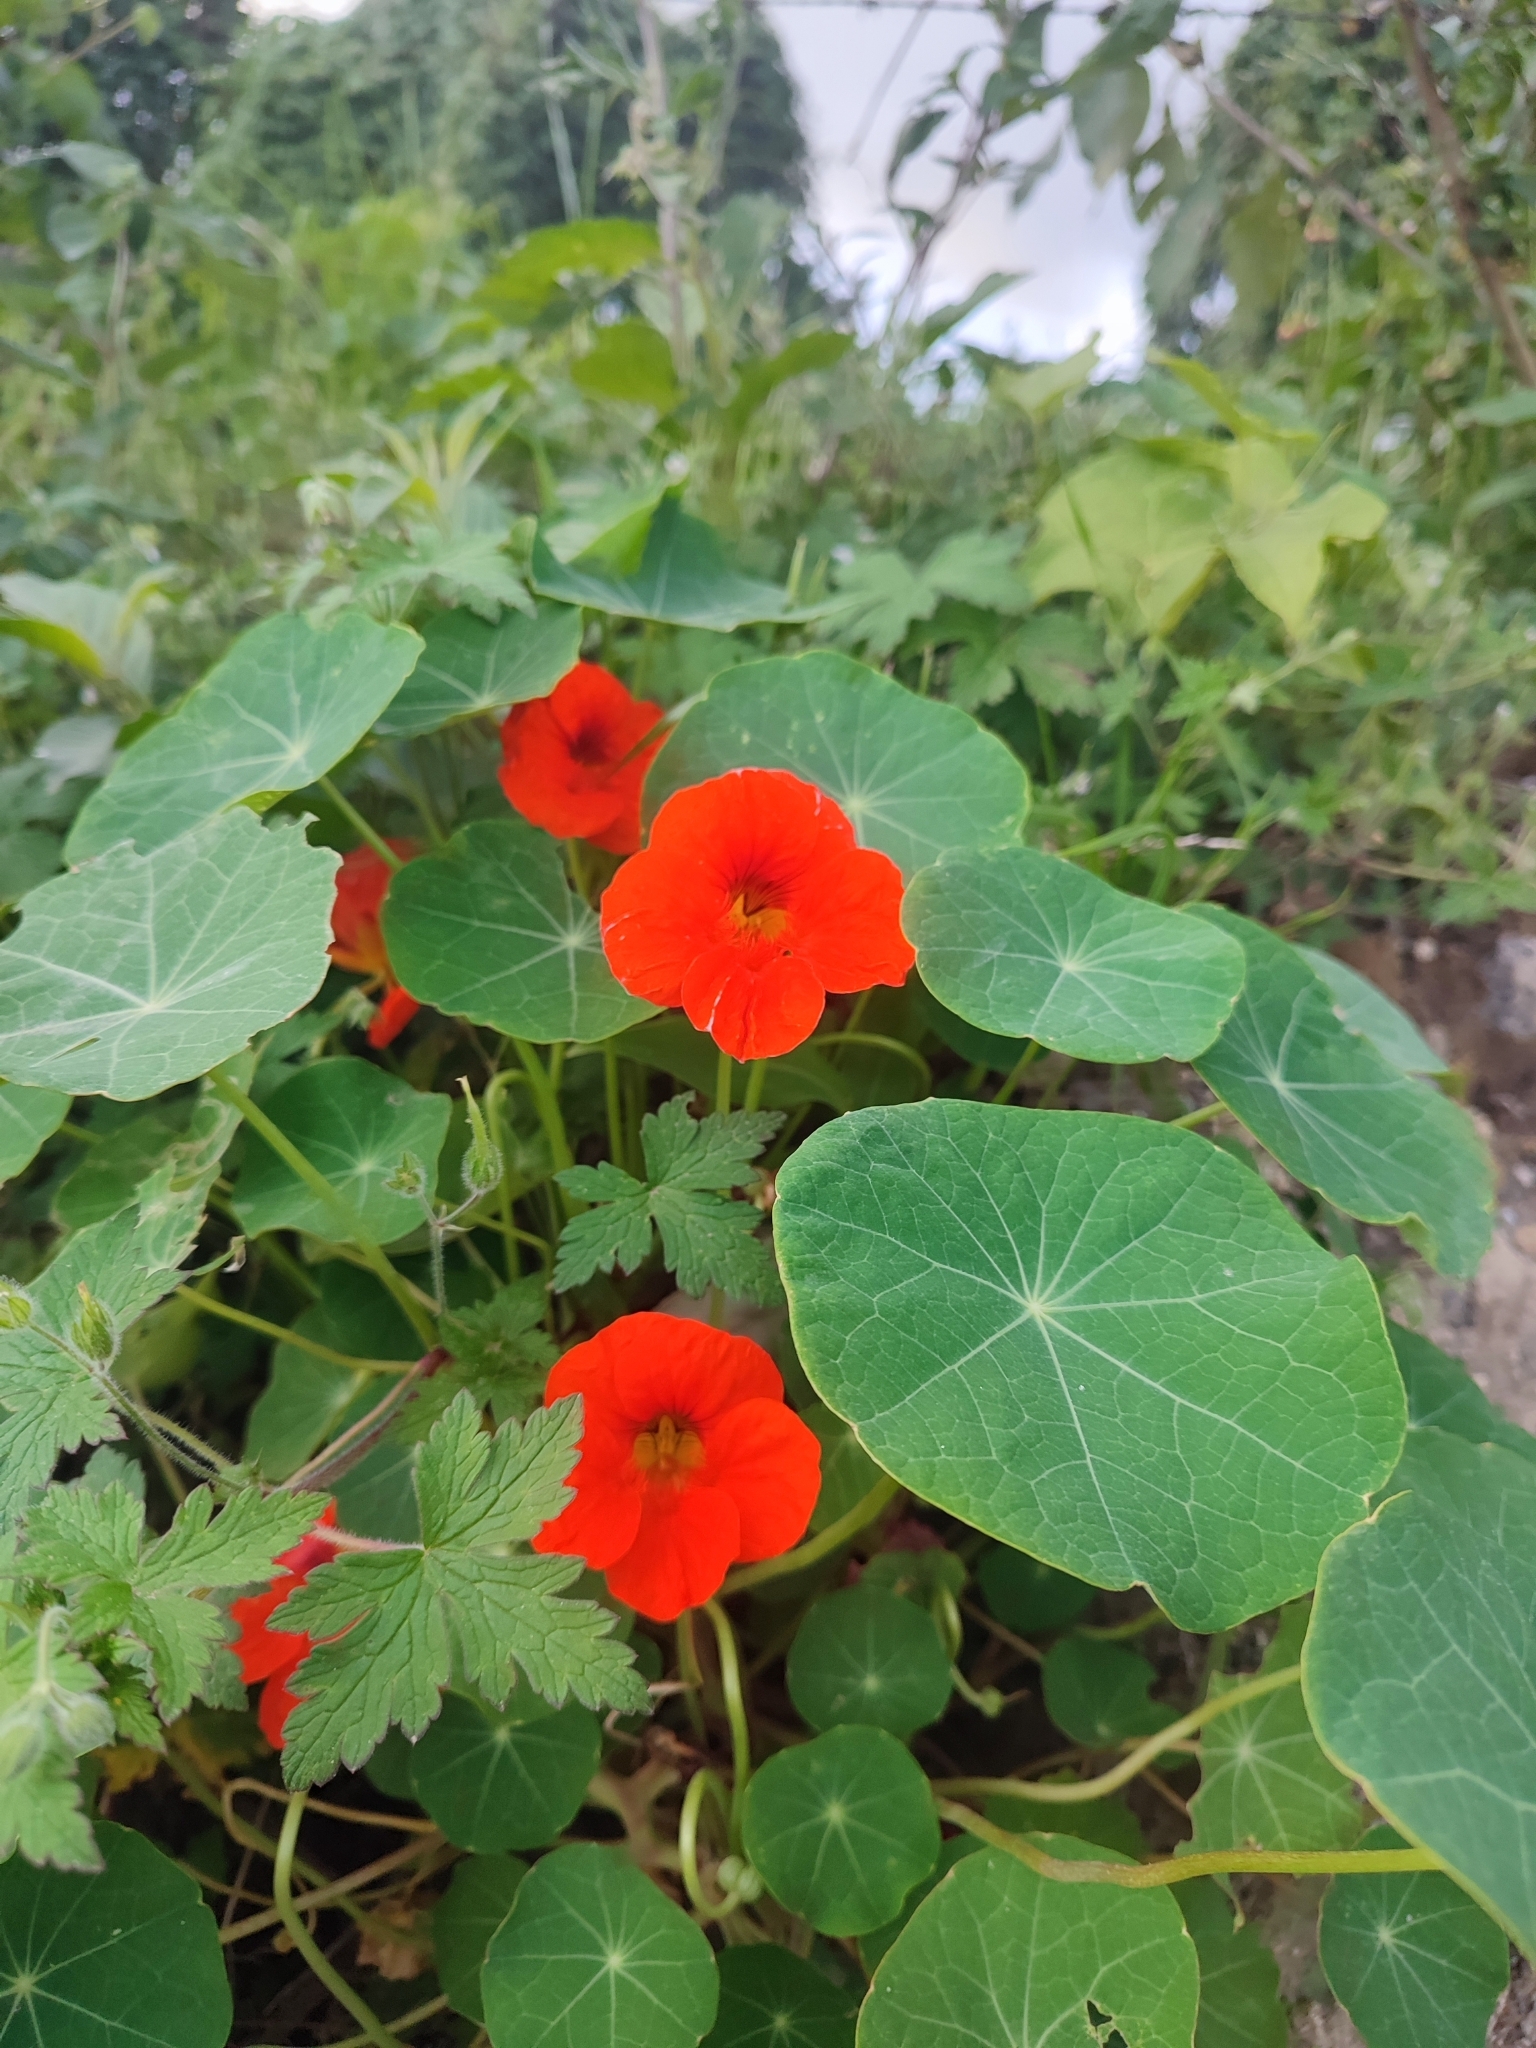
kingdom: Plantae
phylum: Tracheophyta
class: Magnoliopsida
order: Brassicales
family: Tropaeolaceae
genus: Tropaeolum
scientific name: Tropaeolum majus
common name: Nasturtium
